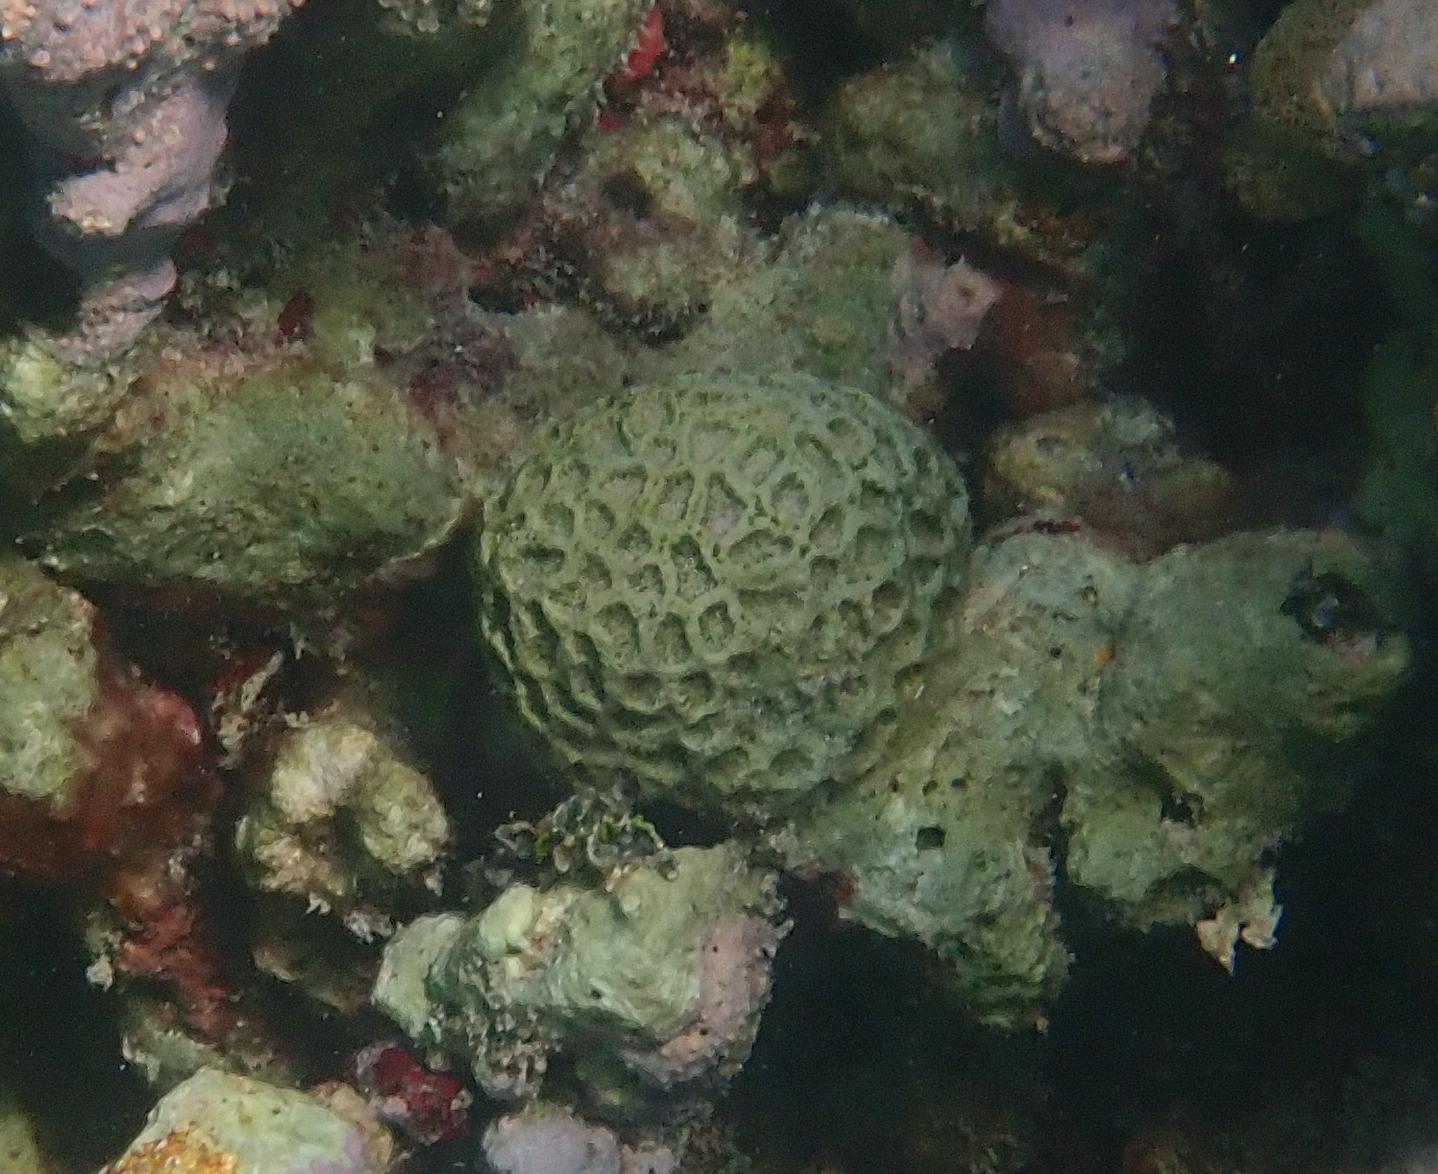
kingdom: Animalia
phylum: Cnidaria
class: Anthozoa
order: Scleractinia
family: Faviidae
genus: Isophyllia
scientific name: Isophyllia rigida
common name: Rough star coral
